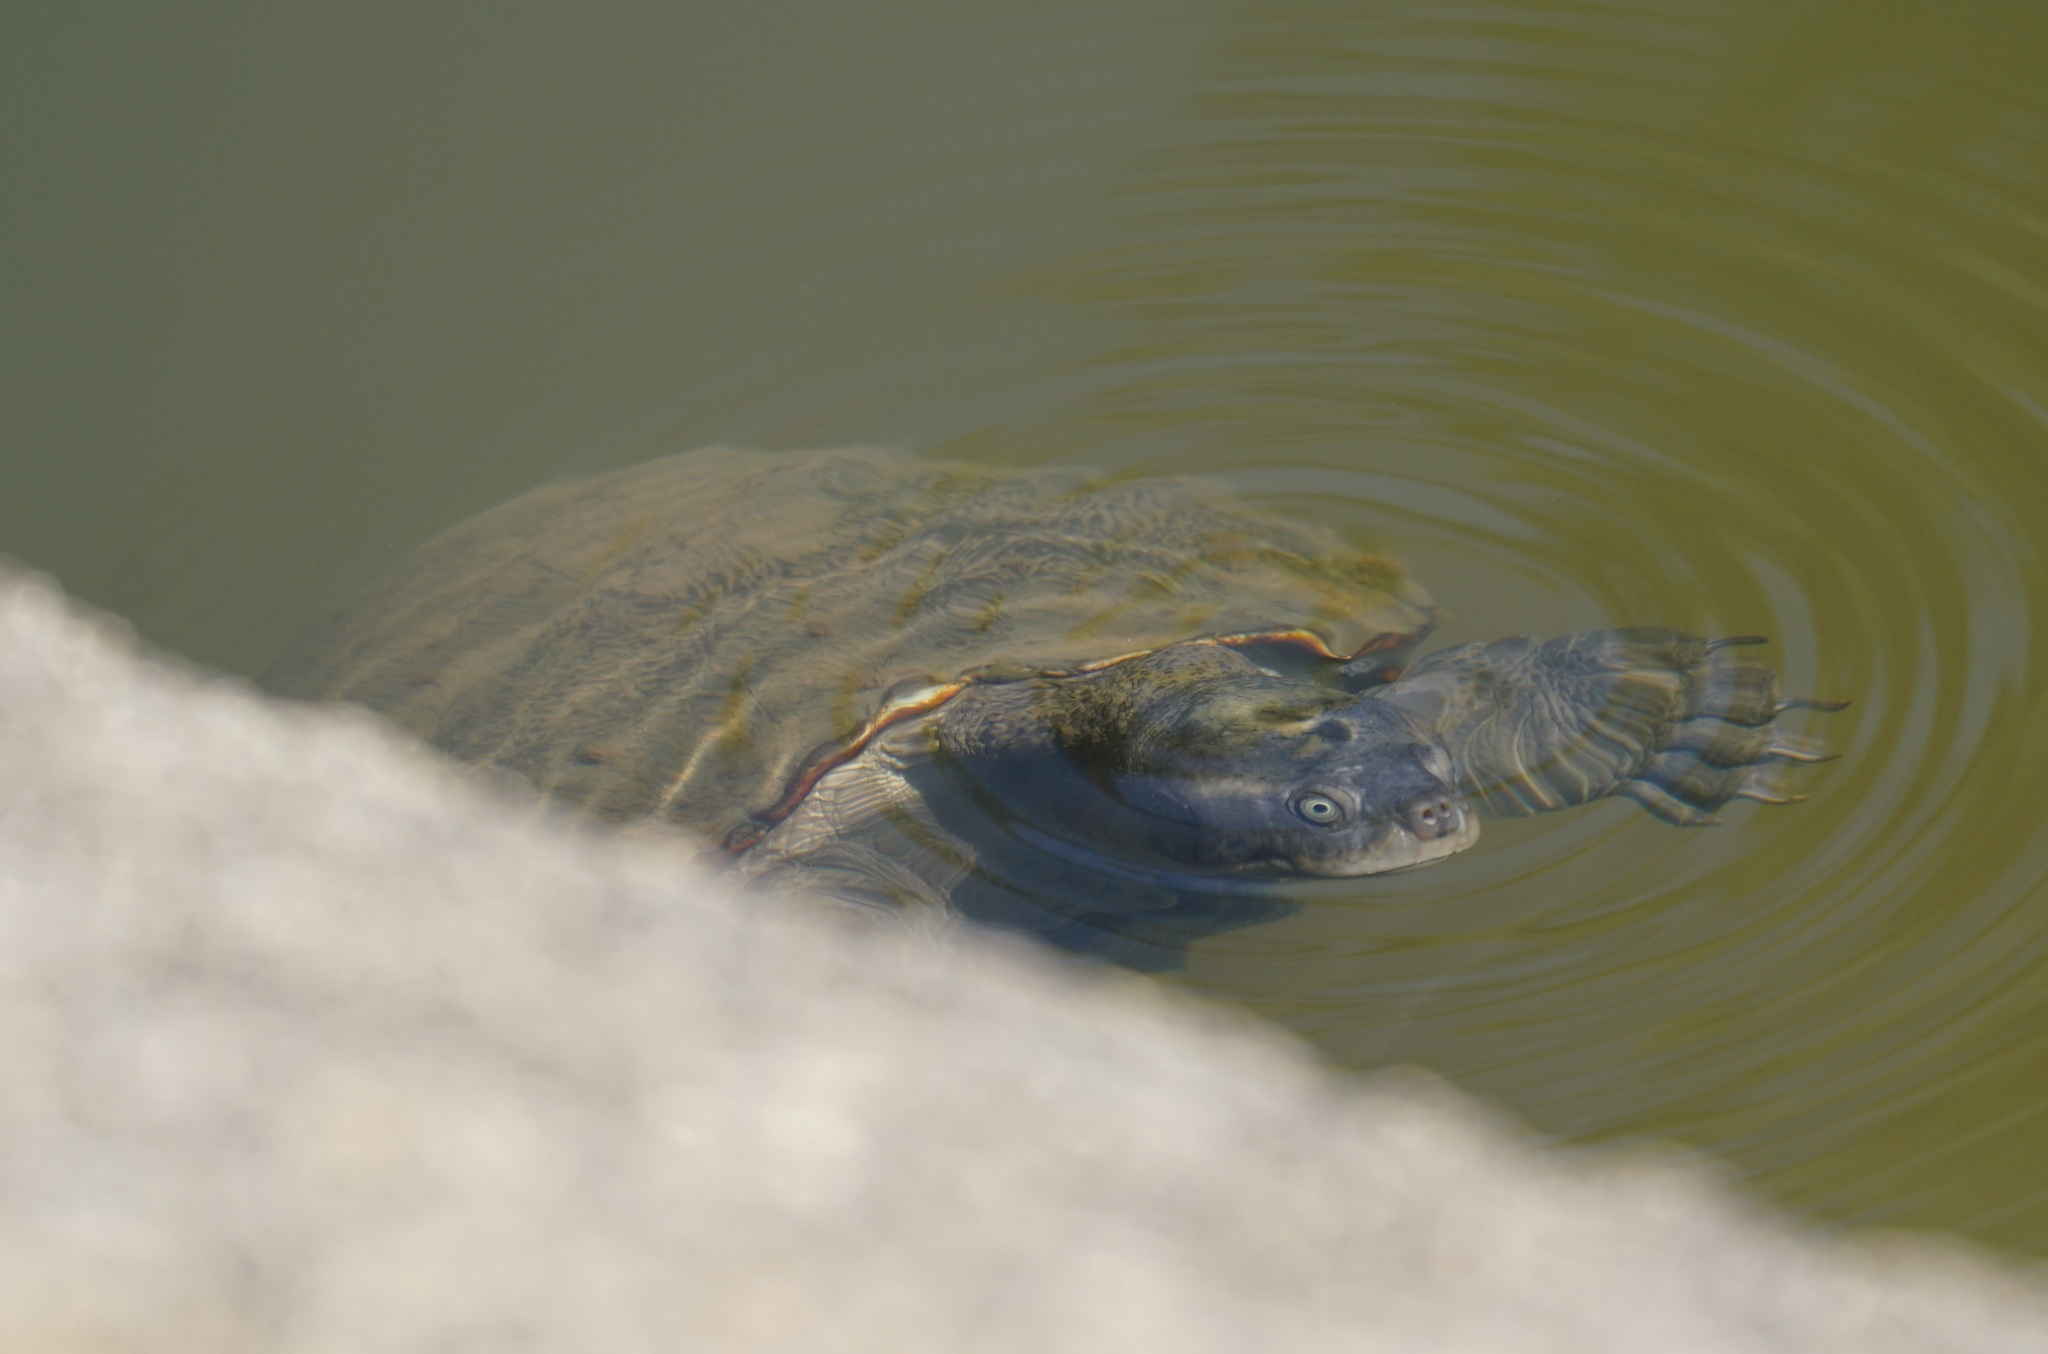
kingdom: Animalia
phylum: Chordata
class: Testudines
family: Chelidae
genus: Emydura
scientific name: Emydura macquarii
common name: Murray river turtle
